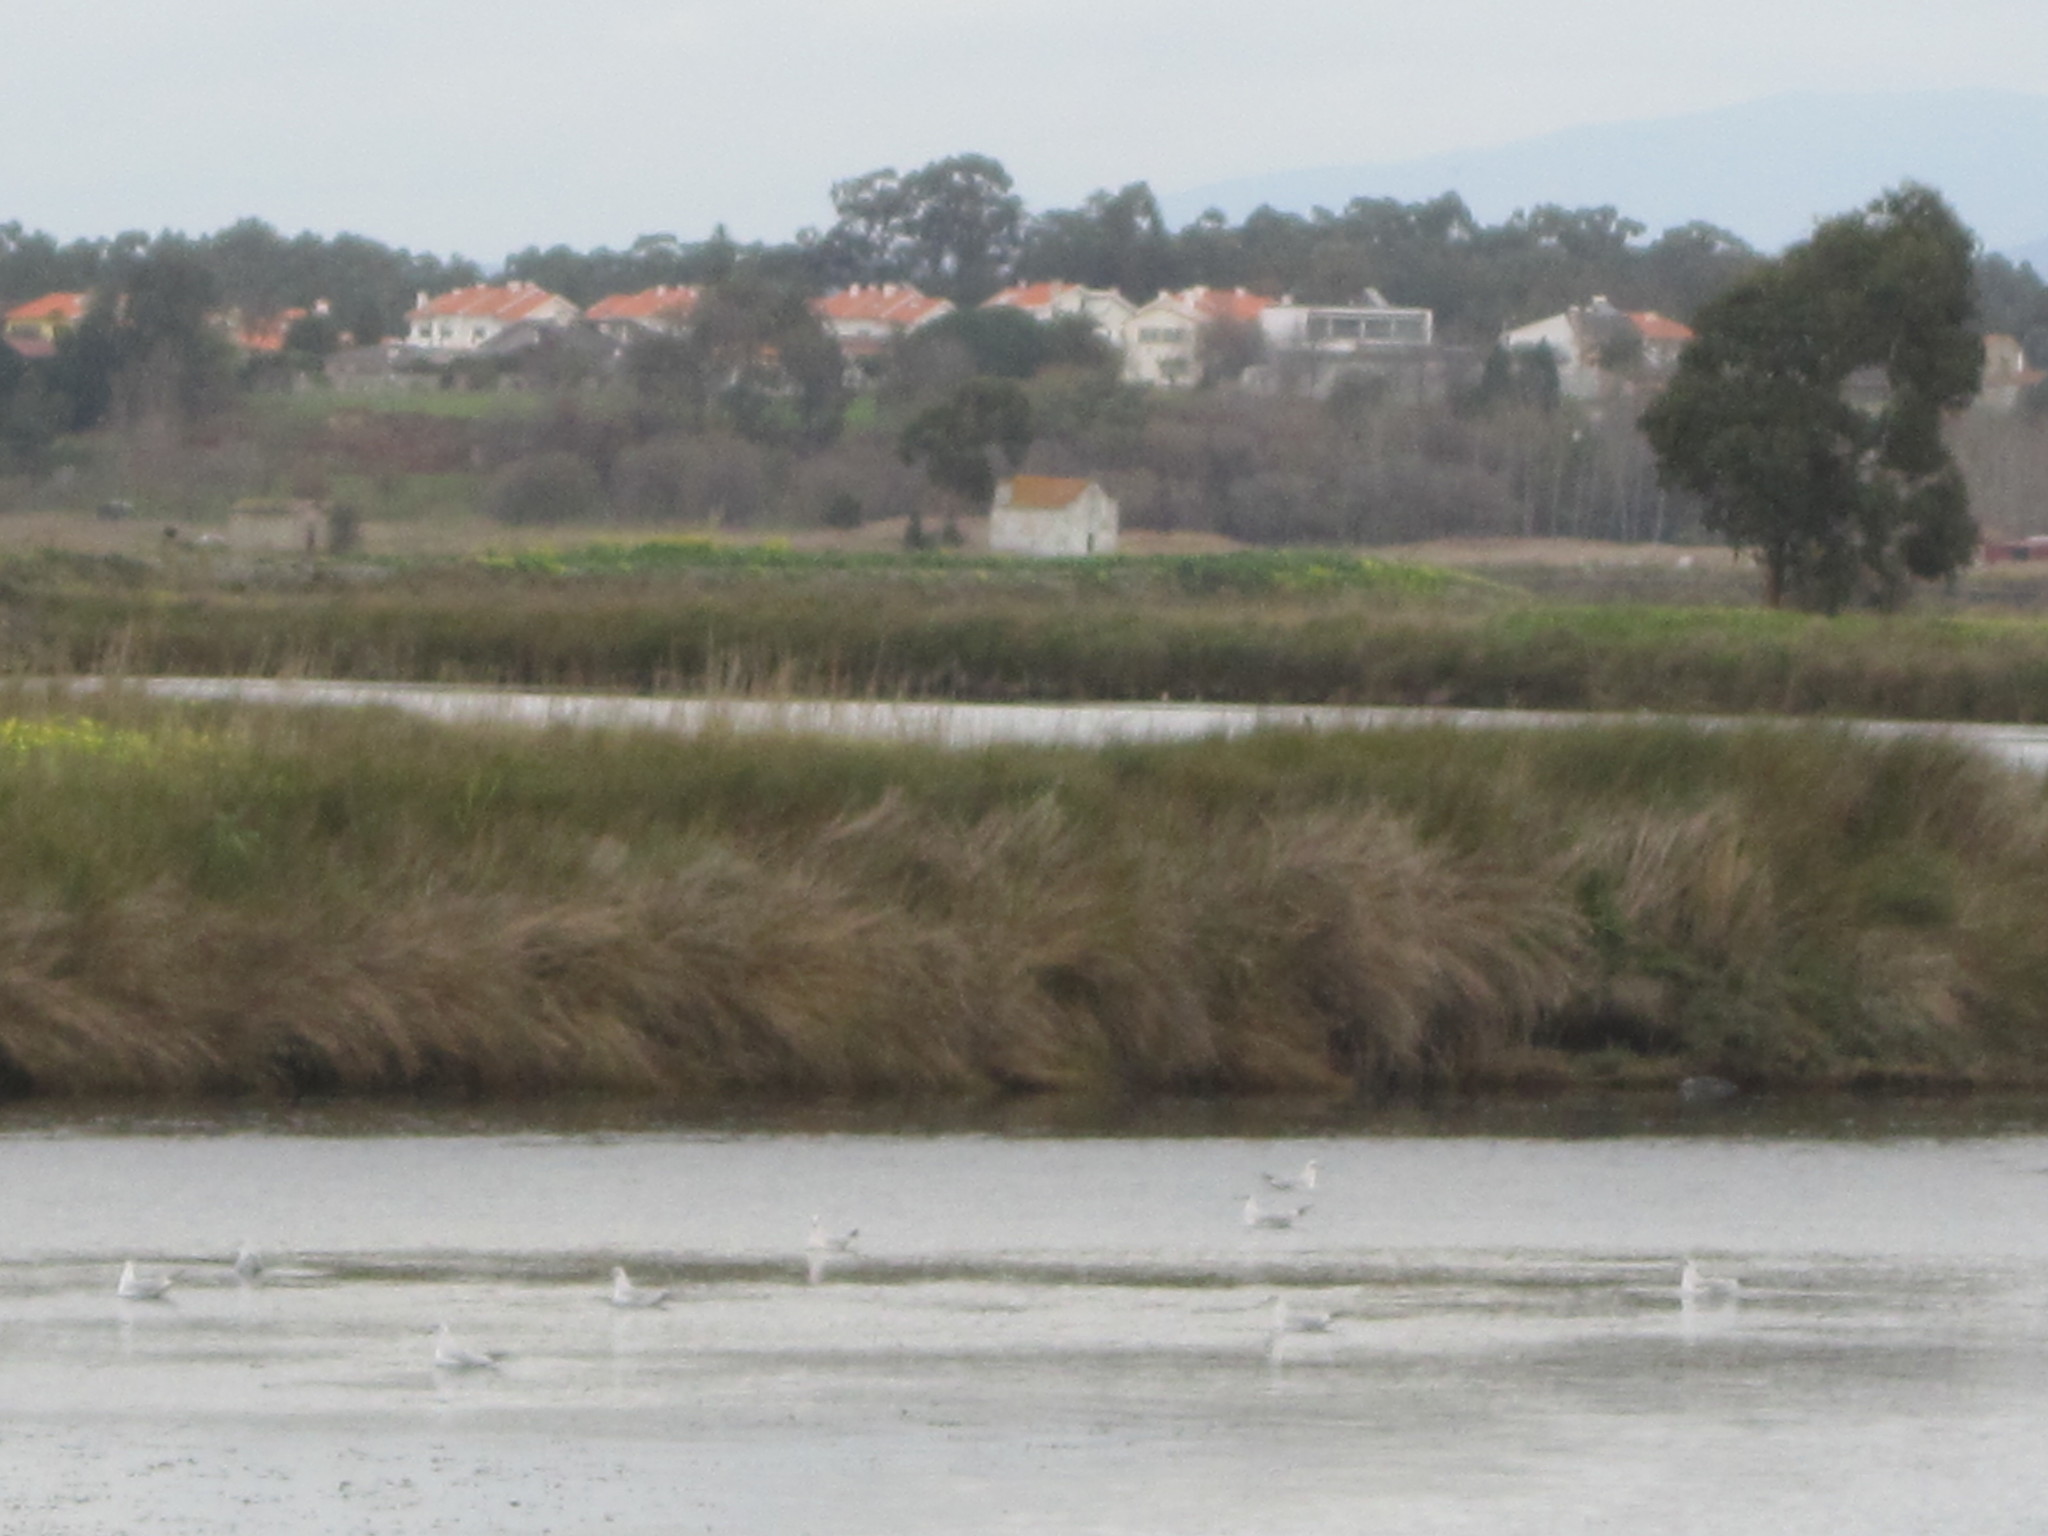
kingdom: Animalia
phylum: Chordata
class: Aves
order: Charadriiformes
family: Laridae
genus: Chroicocephalus
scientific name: Chroicocephalus ridibundus
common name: Black-headed gull
